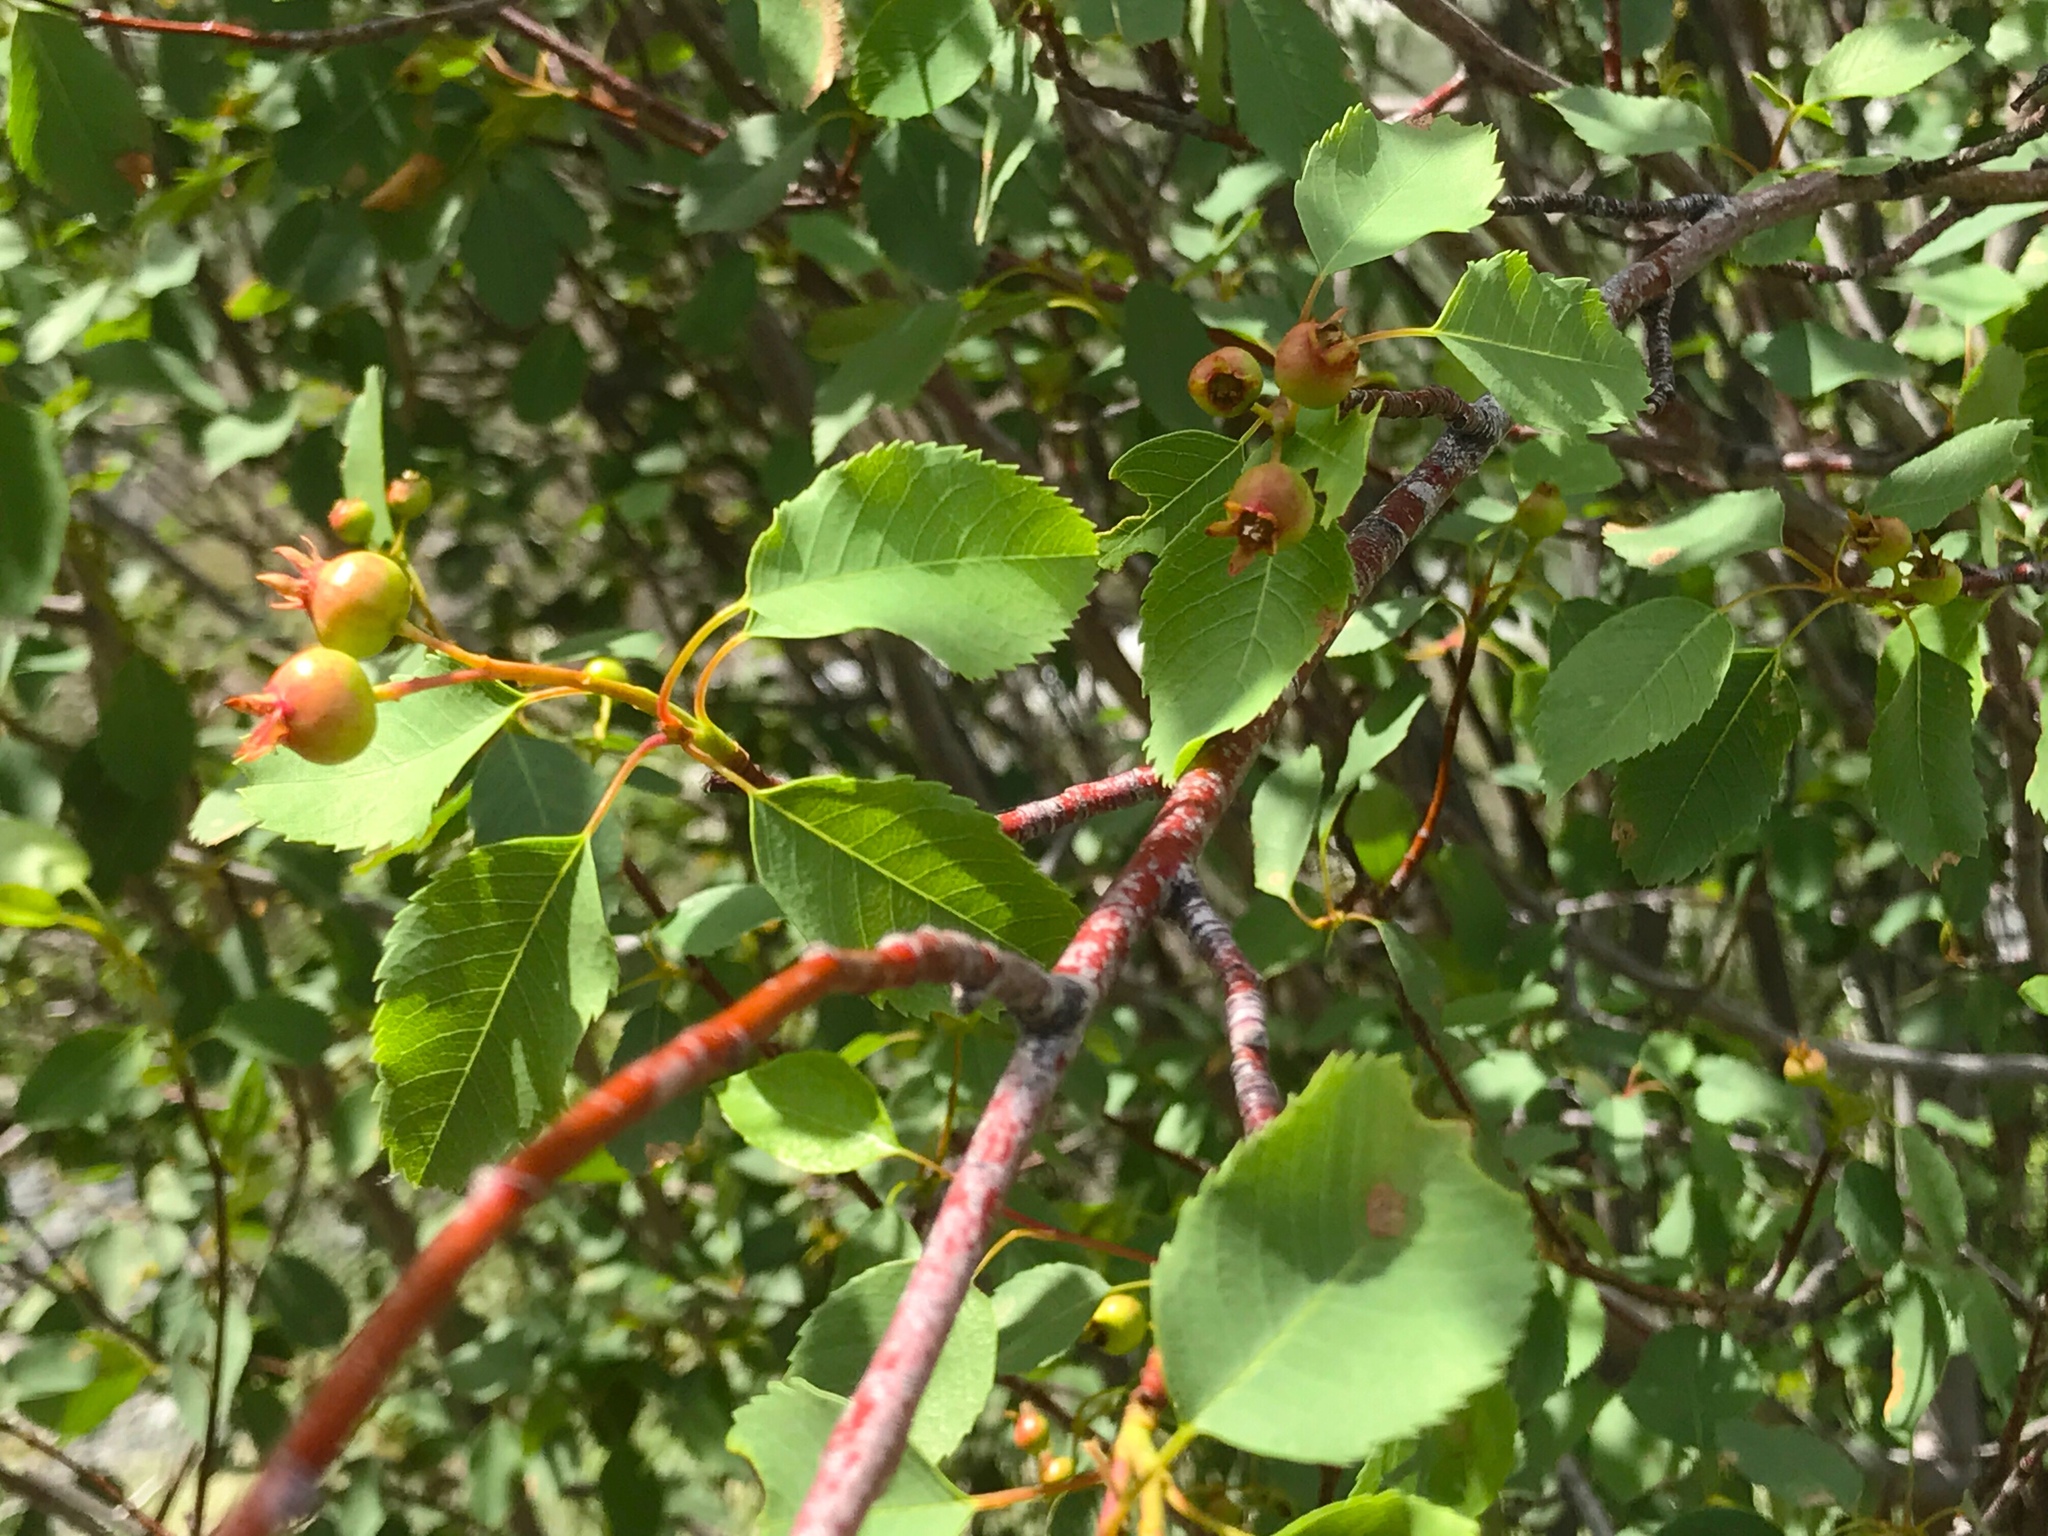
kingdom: Plantae
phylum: Tracheophyta
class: Magnoliopsida
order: Rosales
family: Rosaceae
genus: Amelanchier
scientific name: Amelanchier alnifolia
